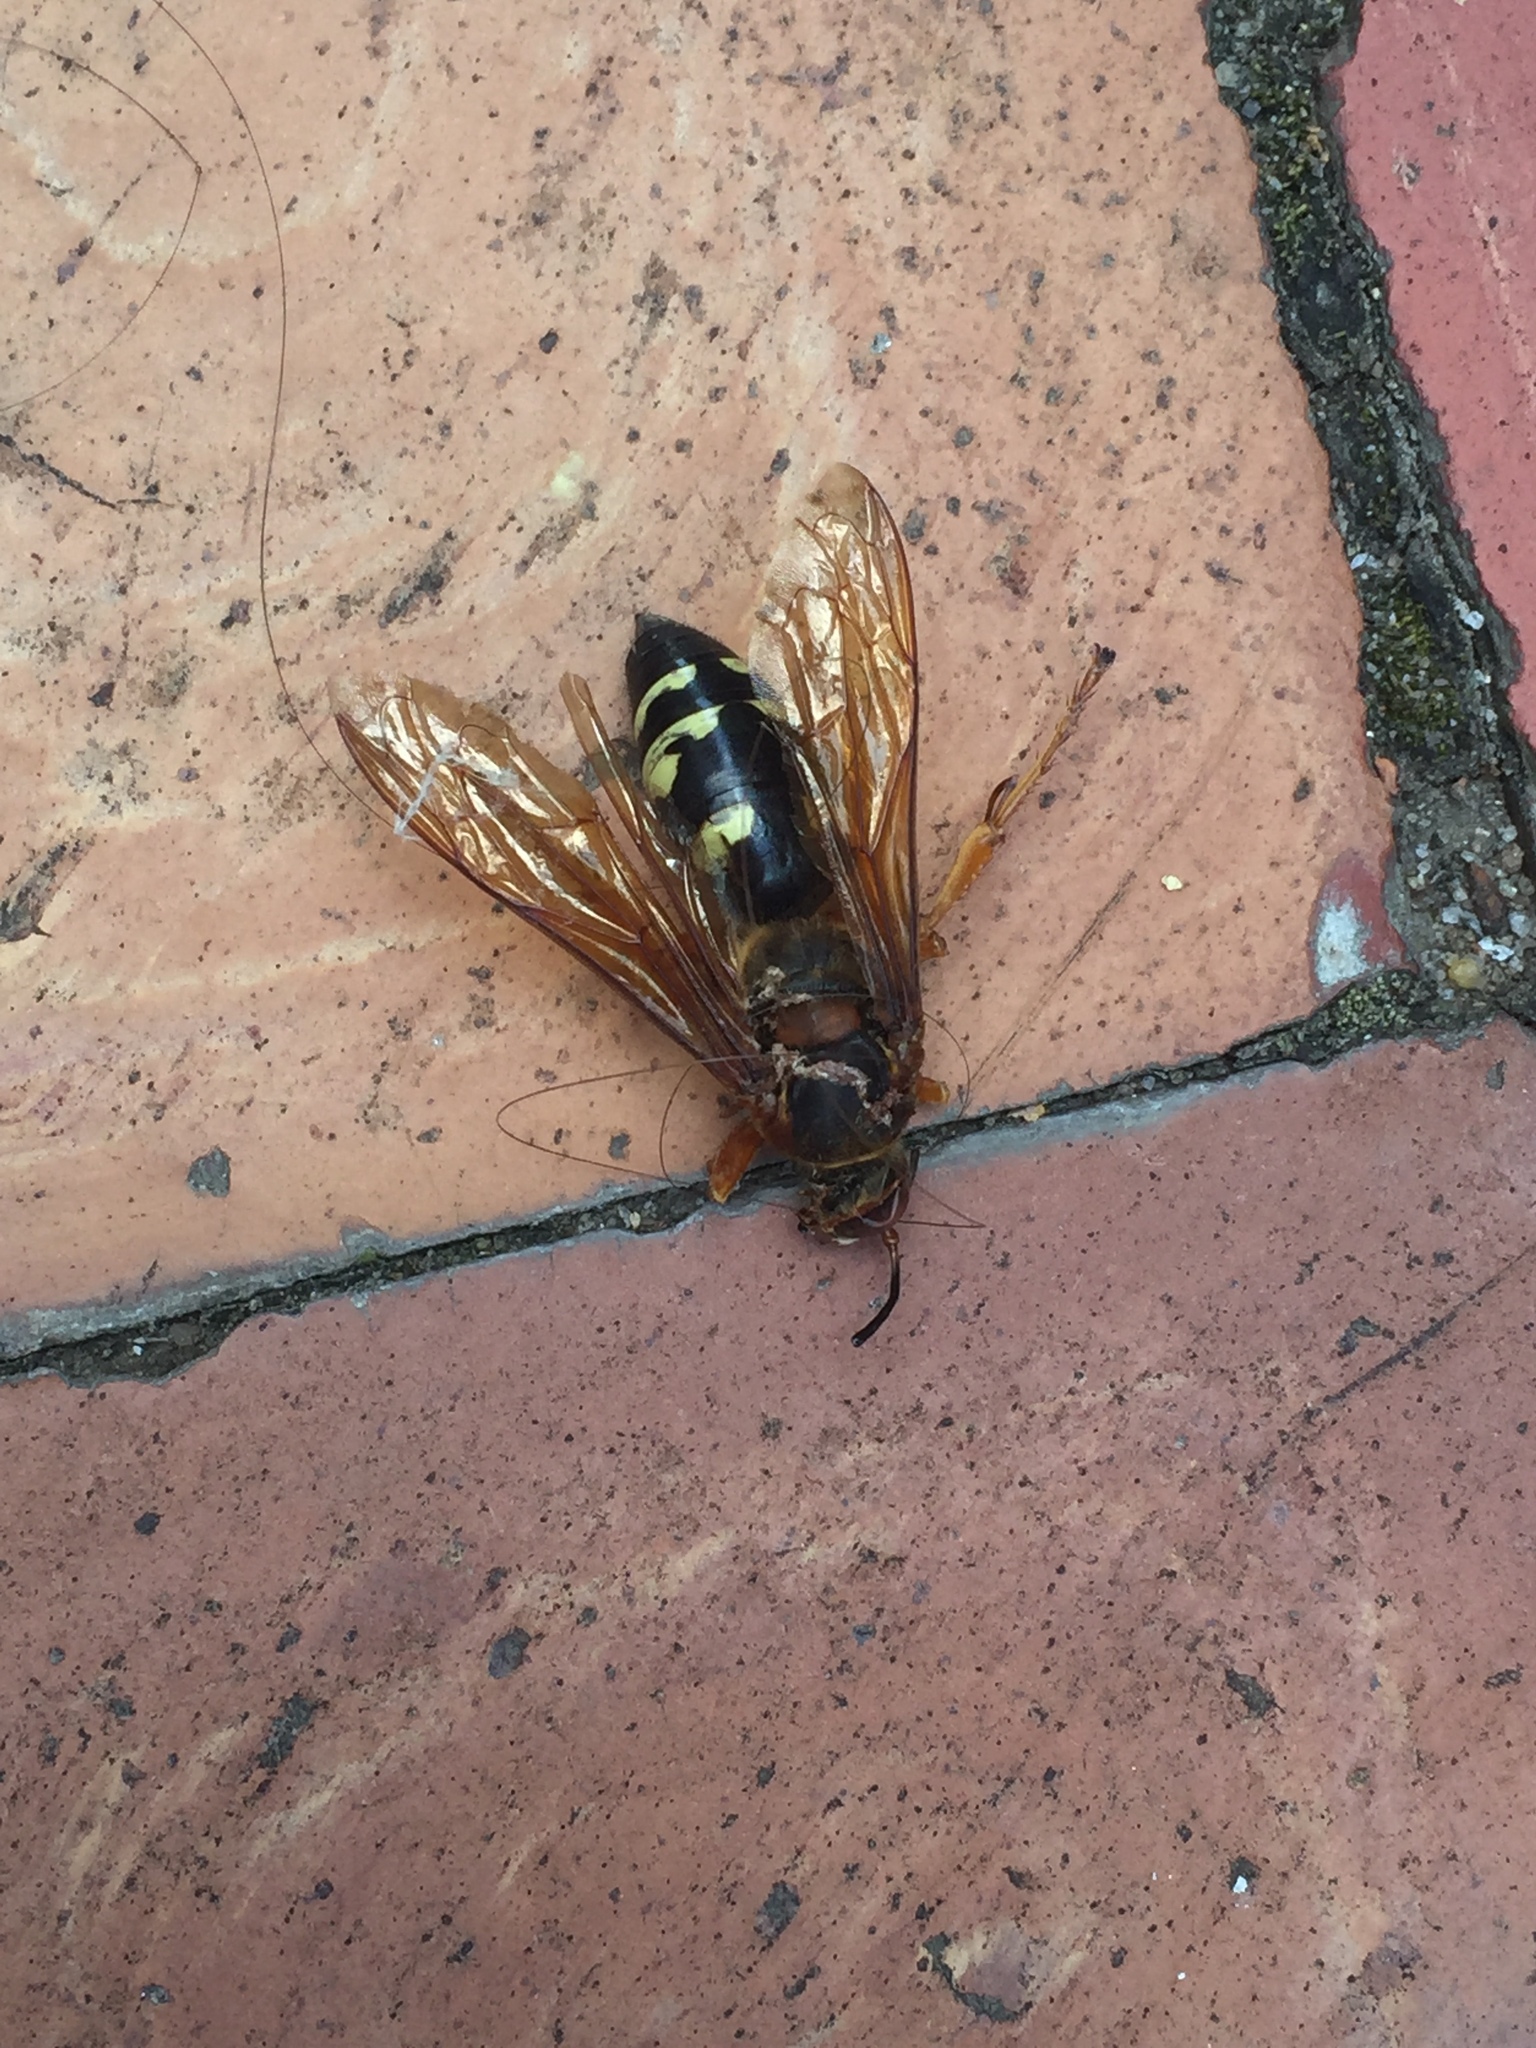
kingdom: Animalia
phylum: Arthropoda
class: Insecta
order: Hymenoptera
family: Crabronidae
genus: Sphecius
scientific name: Sphecius speciosus
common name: Cicada killer
